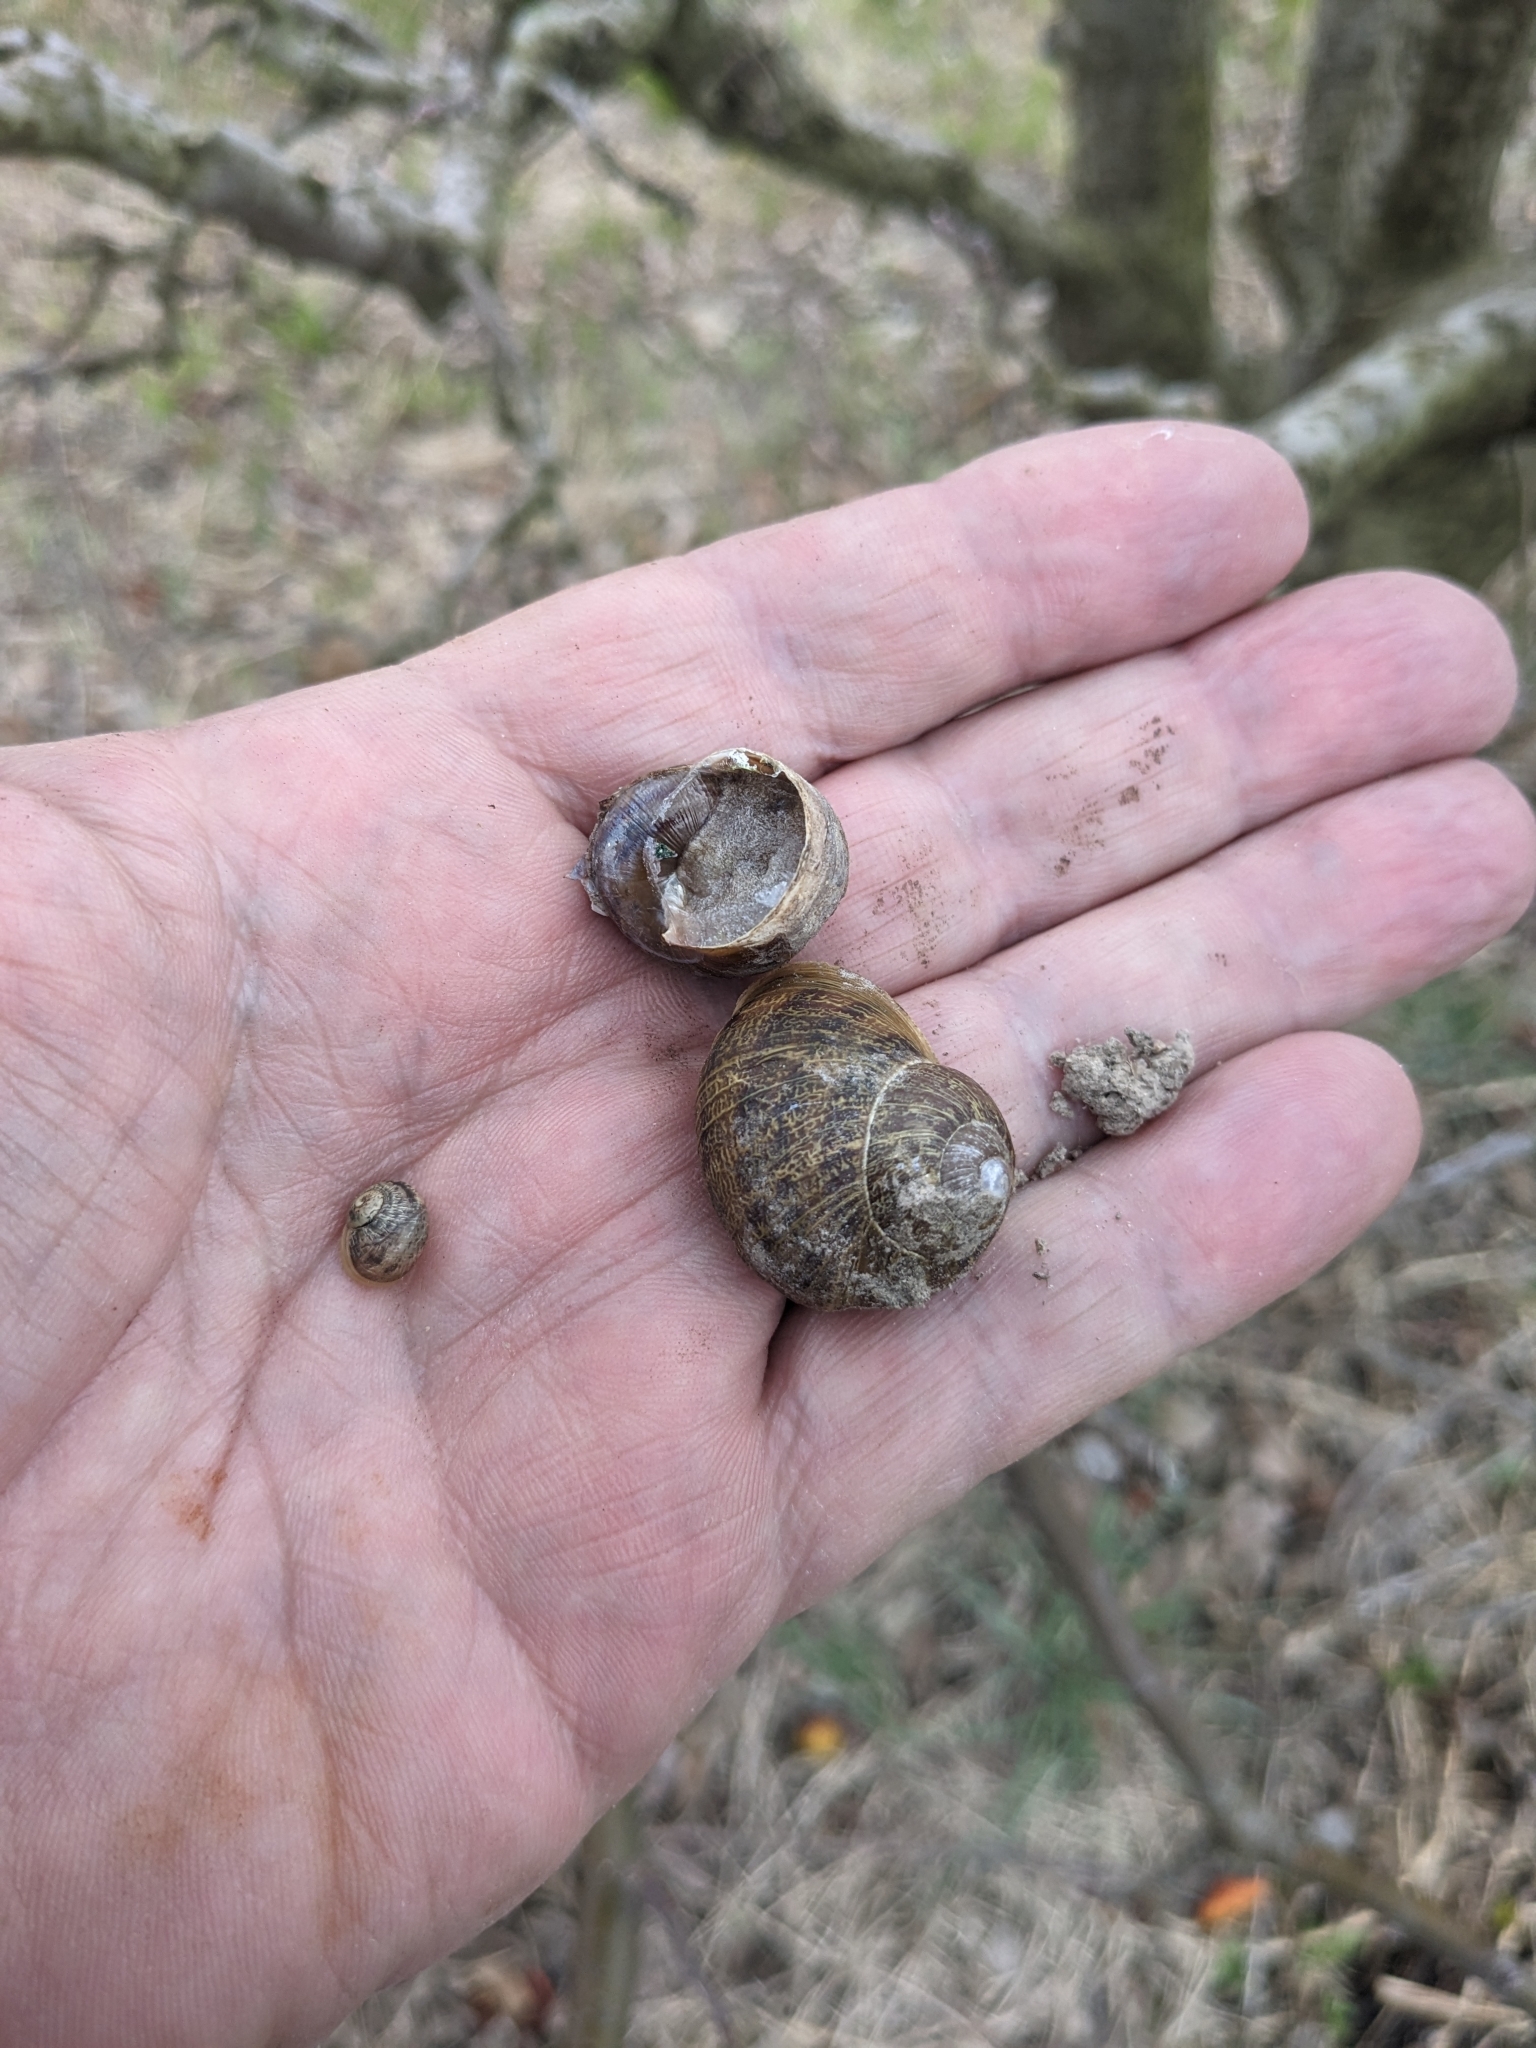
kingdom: Animalia
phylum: Mollusca
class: Gastropoda
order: Stylommatophora
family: Helicidae
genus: Cornu
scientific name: Cornu aspersum
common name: Brown garden snail
